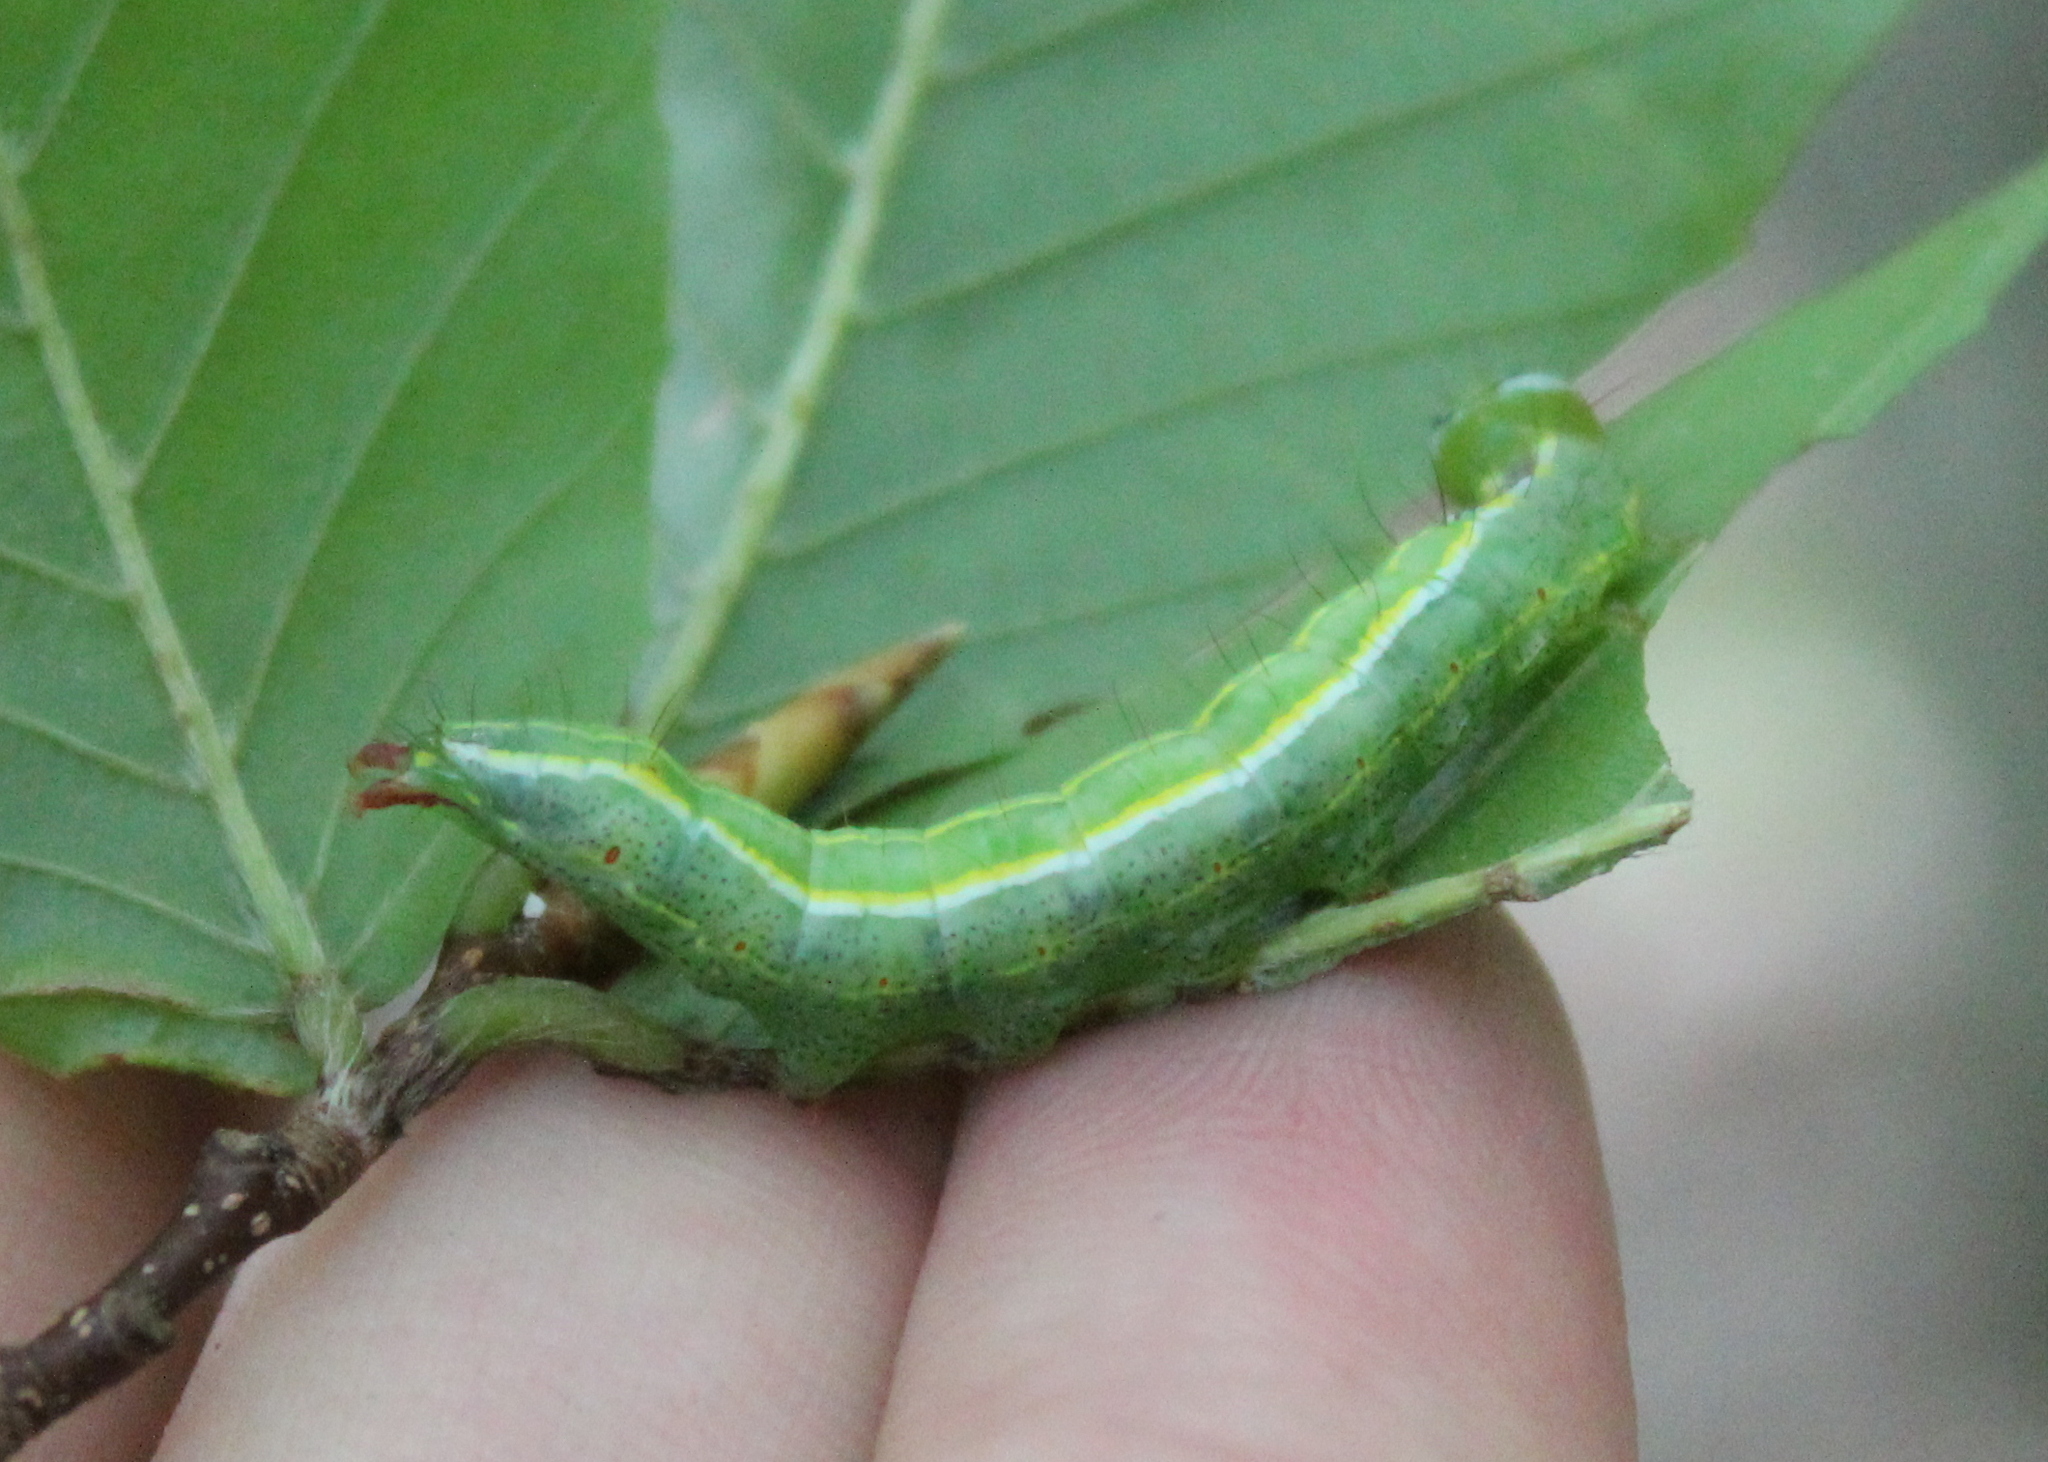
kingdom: Animalia
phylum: Arthropoda
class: Insecta
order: Lepidoptera
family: Notodontidae
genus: Lochmaeus
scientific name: Lochmaeus manteo
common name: Variable oakleaf caterpillar moth
